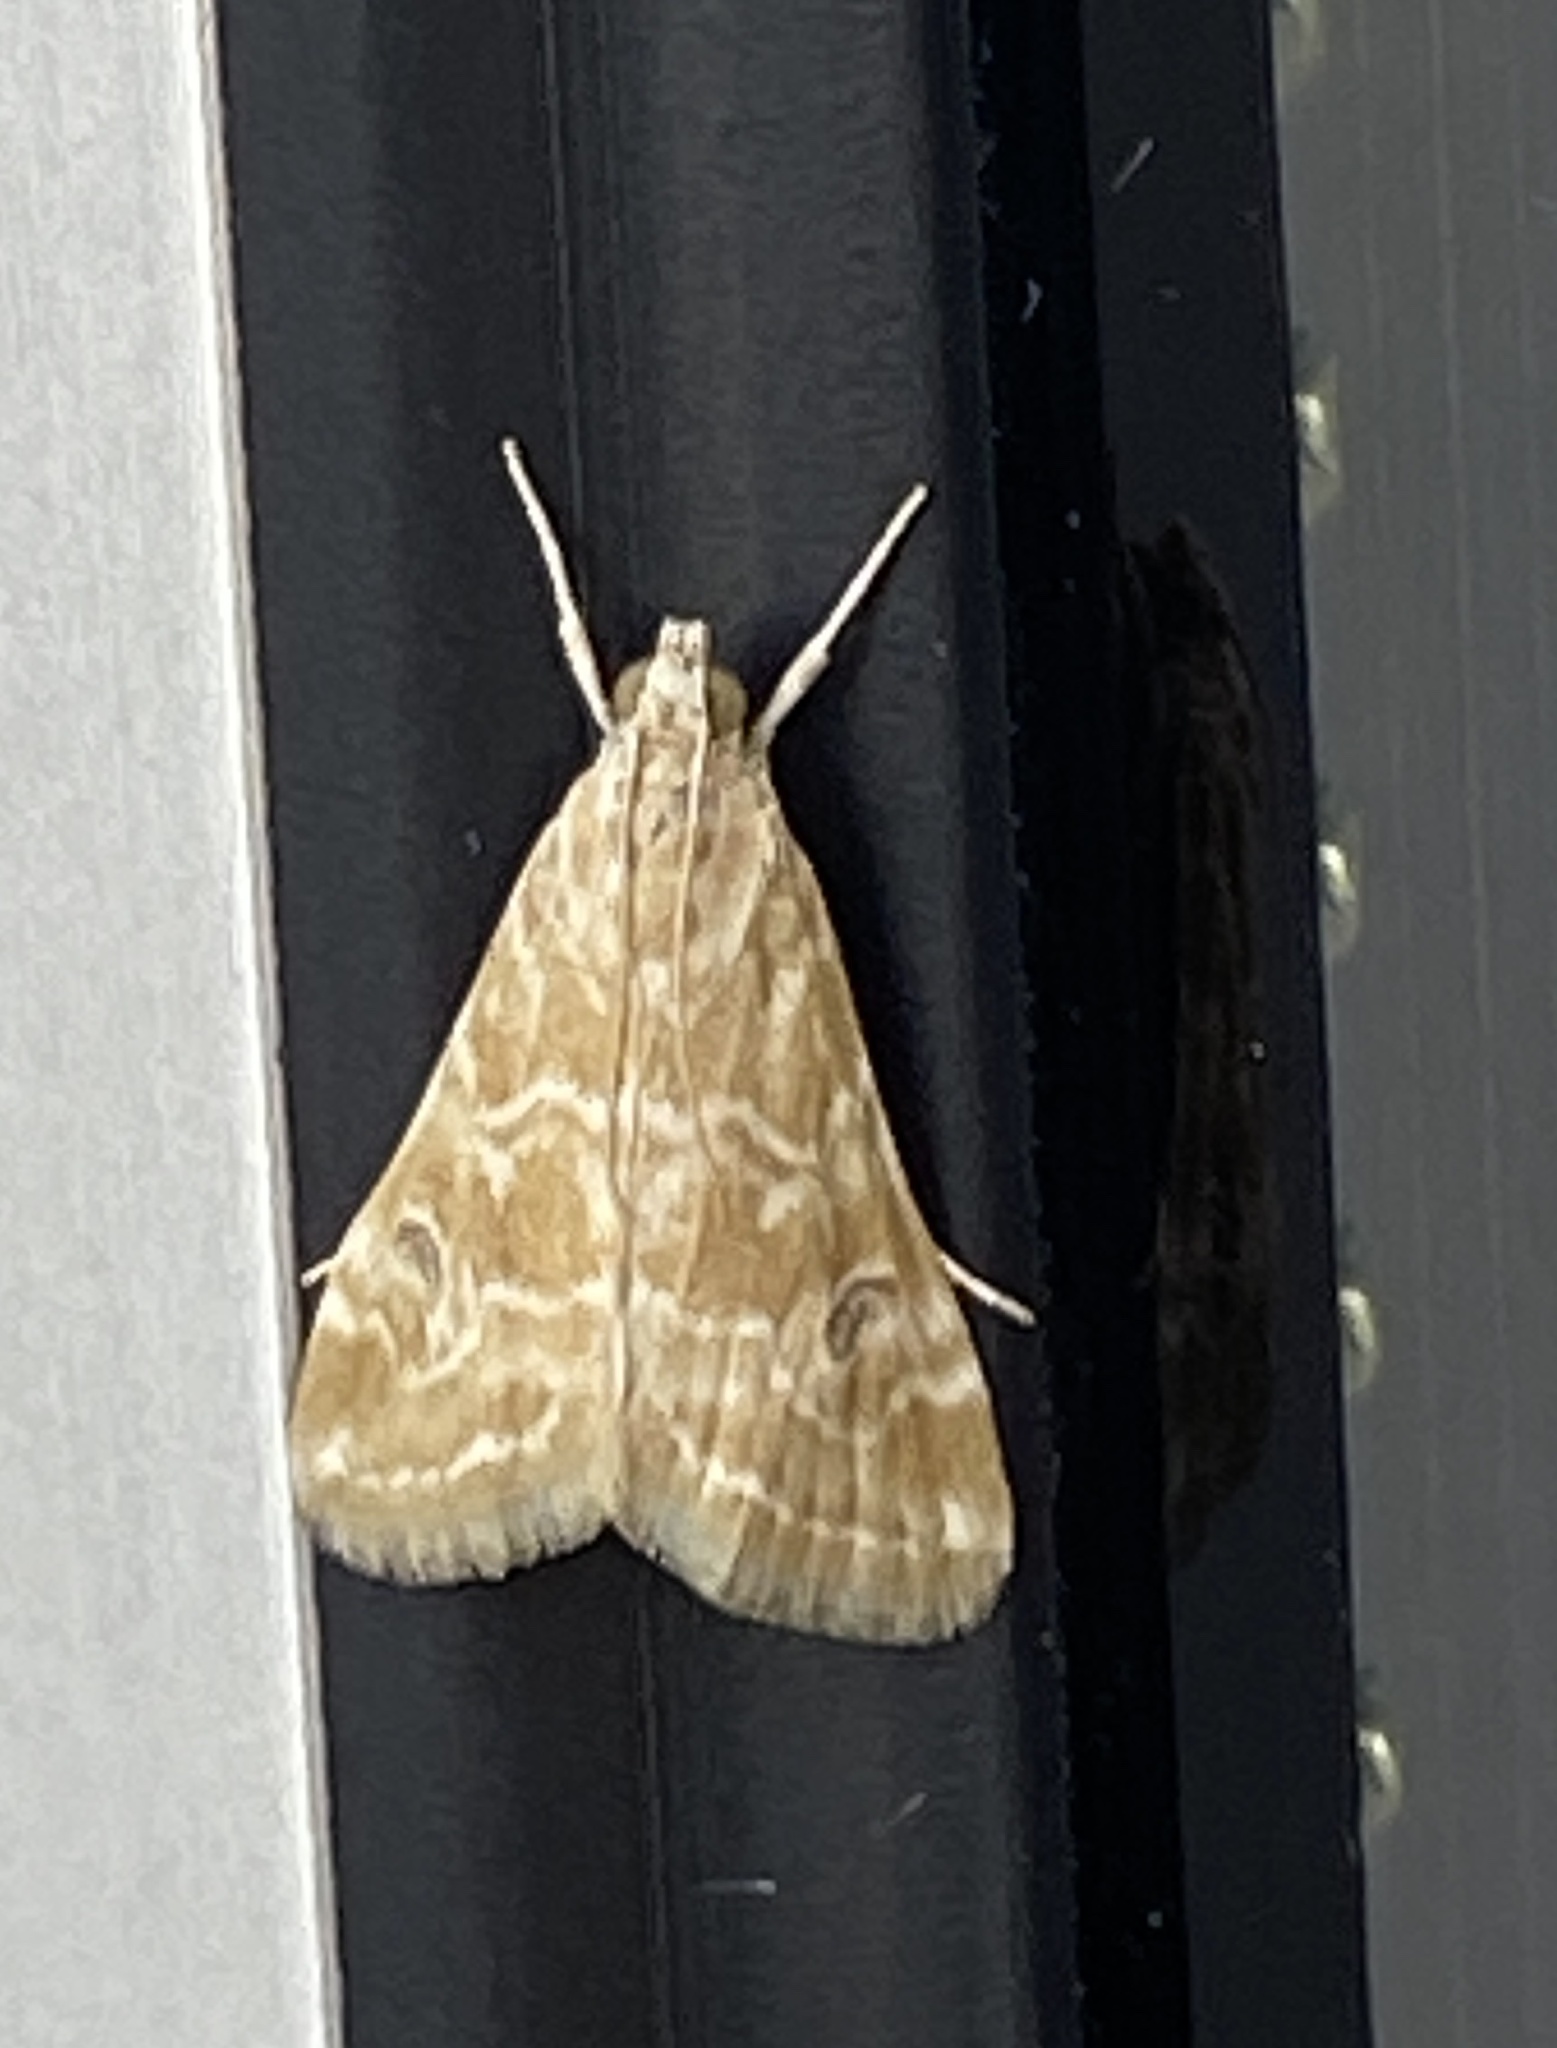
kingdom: Animalia
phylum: Arthropoda
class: Insecta
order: Lepidoptera
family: Crambidae
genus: Hellula
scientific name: Hellula undalis
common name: Cabbage webworm
